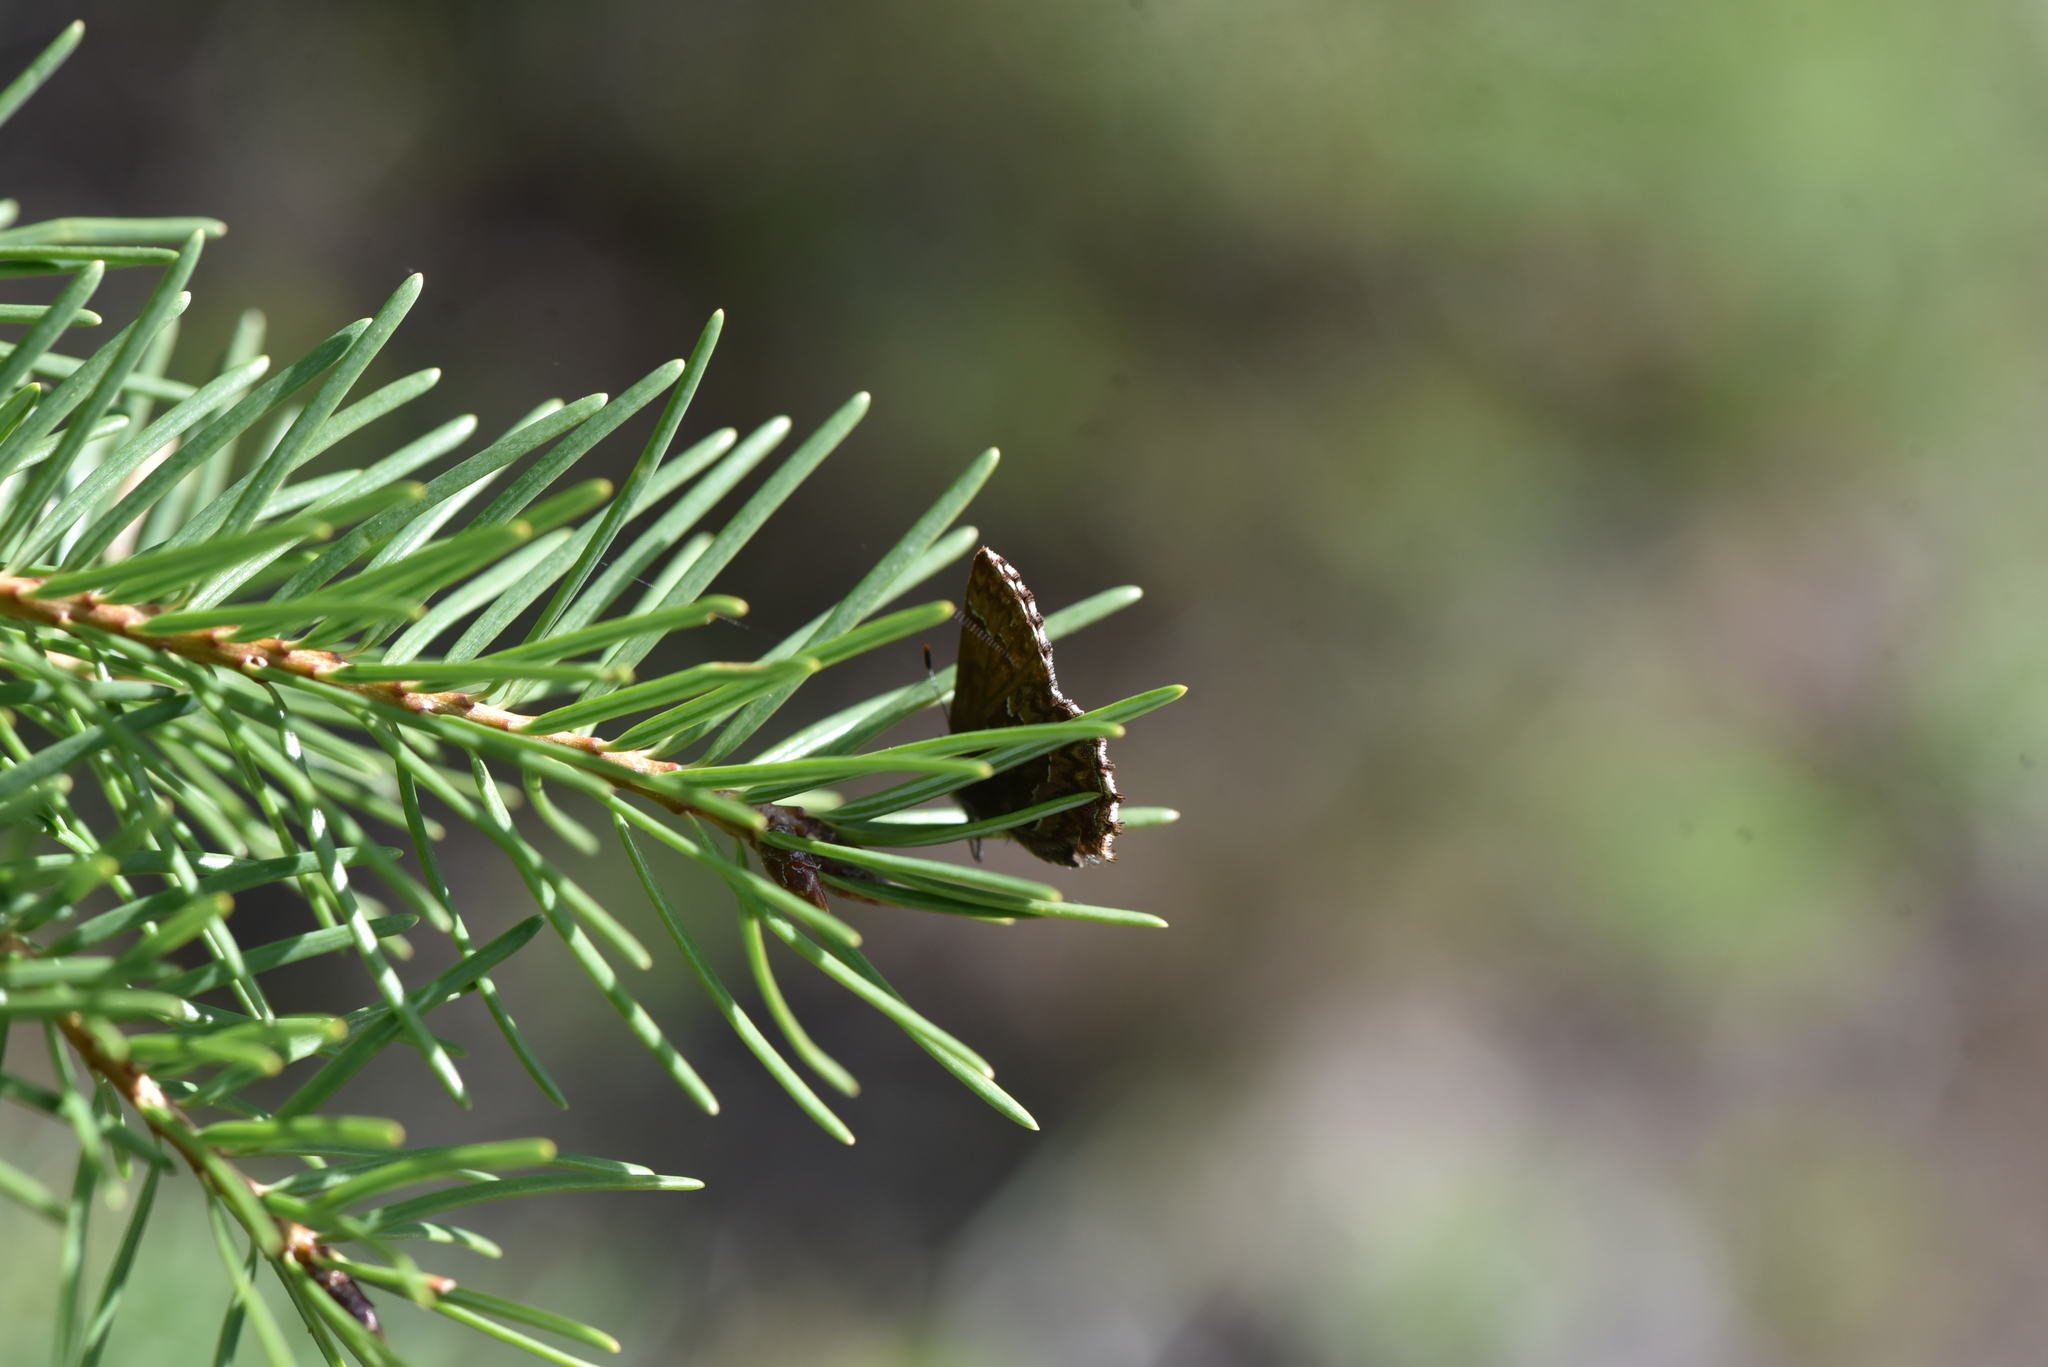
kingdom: Animalia
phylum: Arthropoda
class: Insecta
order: Lepidoptera
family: Lycaenidae
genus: Incisalia
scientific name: Incisalia eryphon
